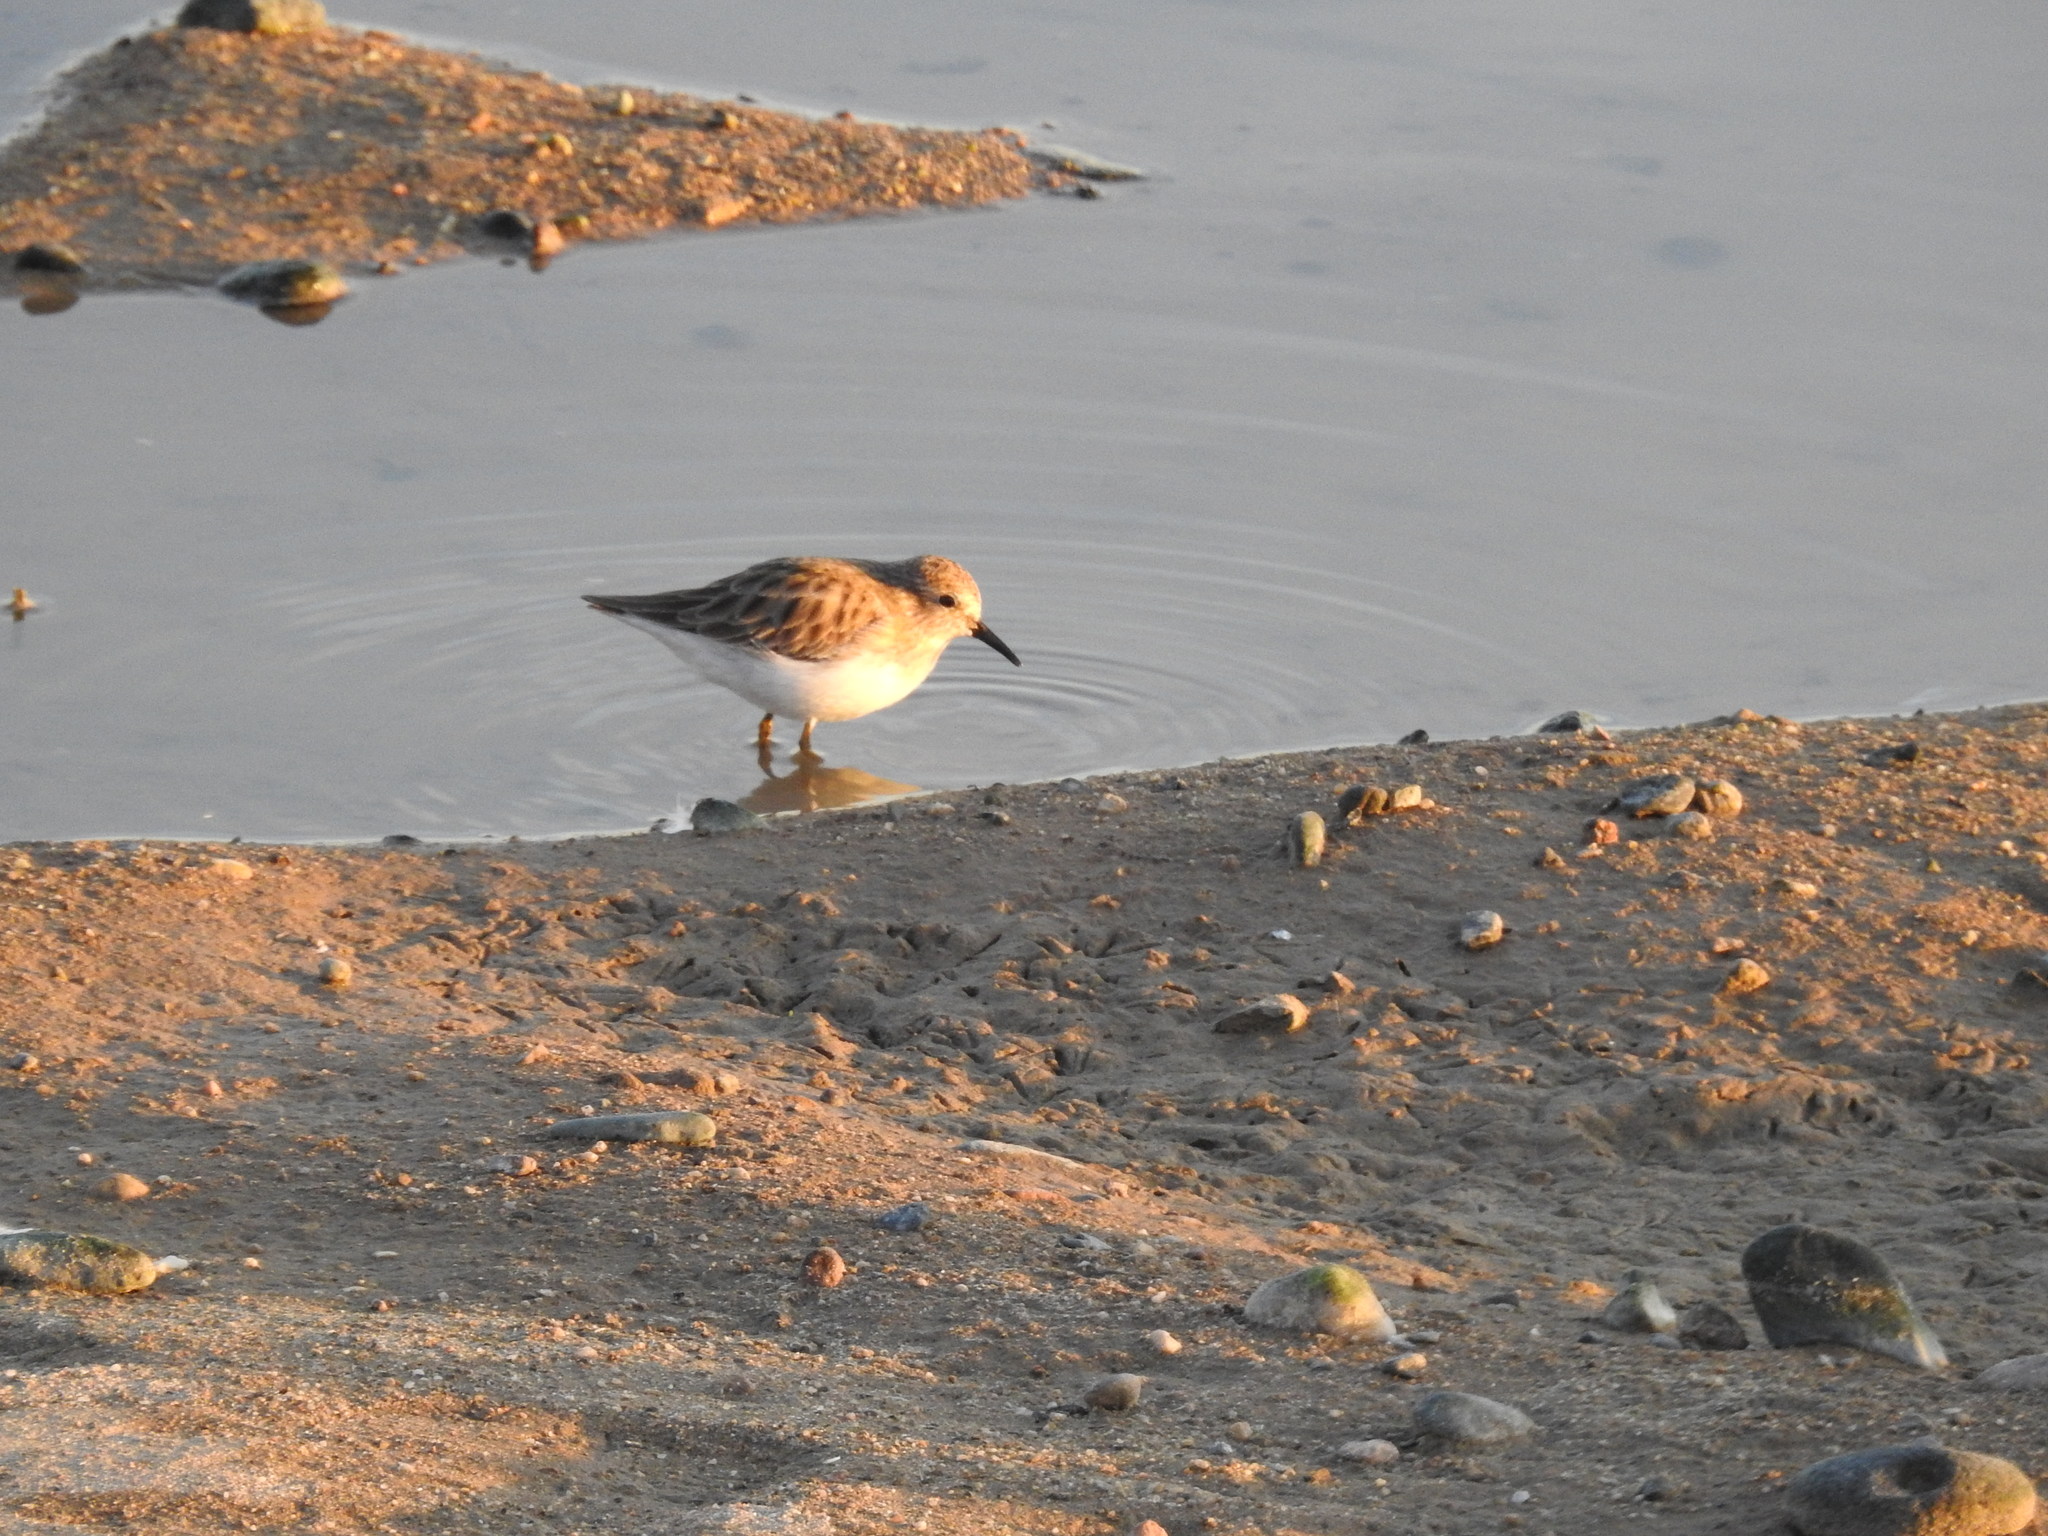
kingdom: Animalia
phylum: Chordata
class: Aves
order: Charadriiformes
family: Scolopacidae
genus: Calidris
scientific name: Calidris minutilla
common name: Least sandpiper
